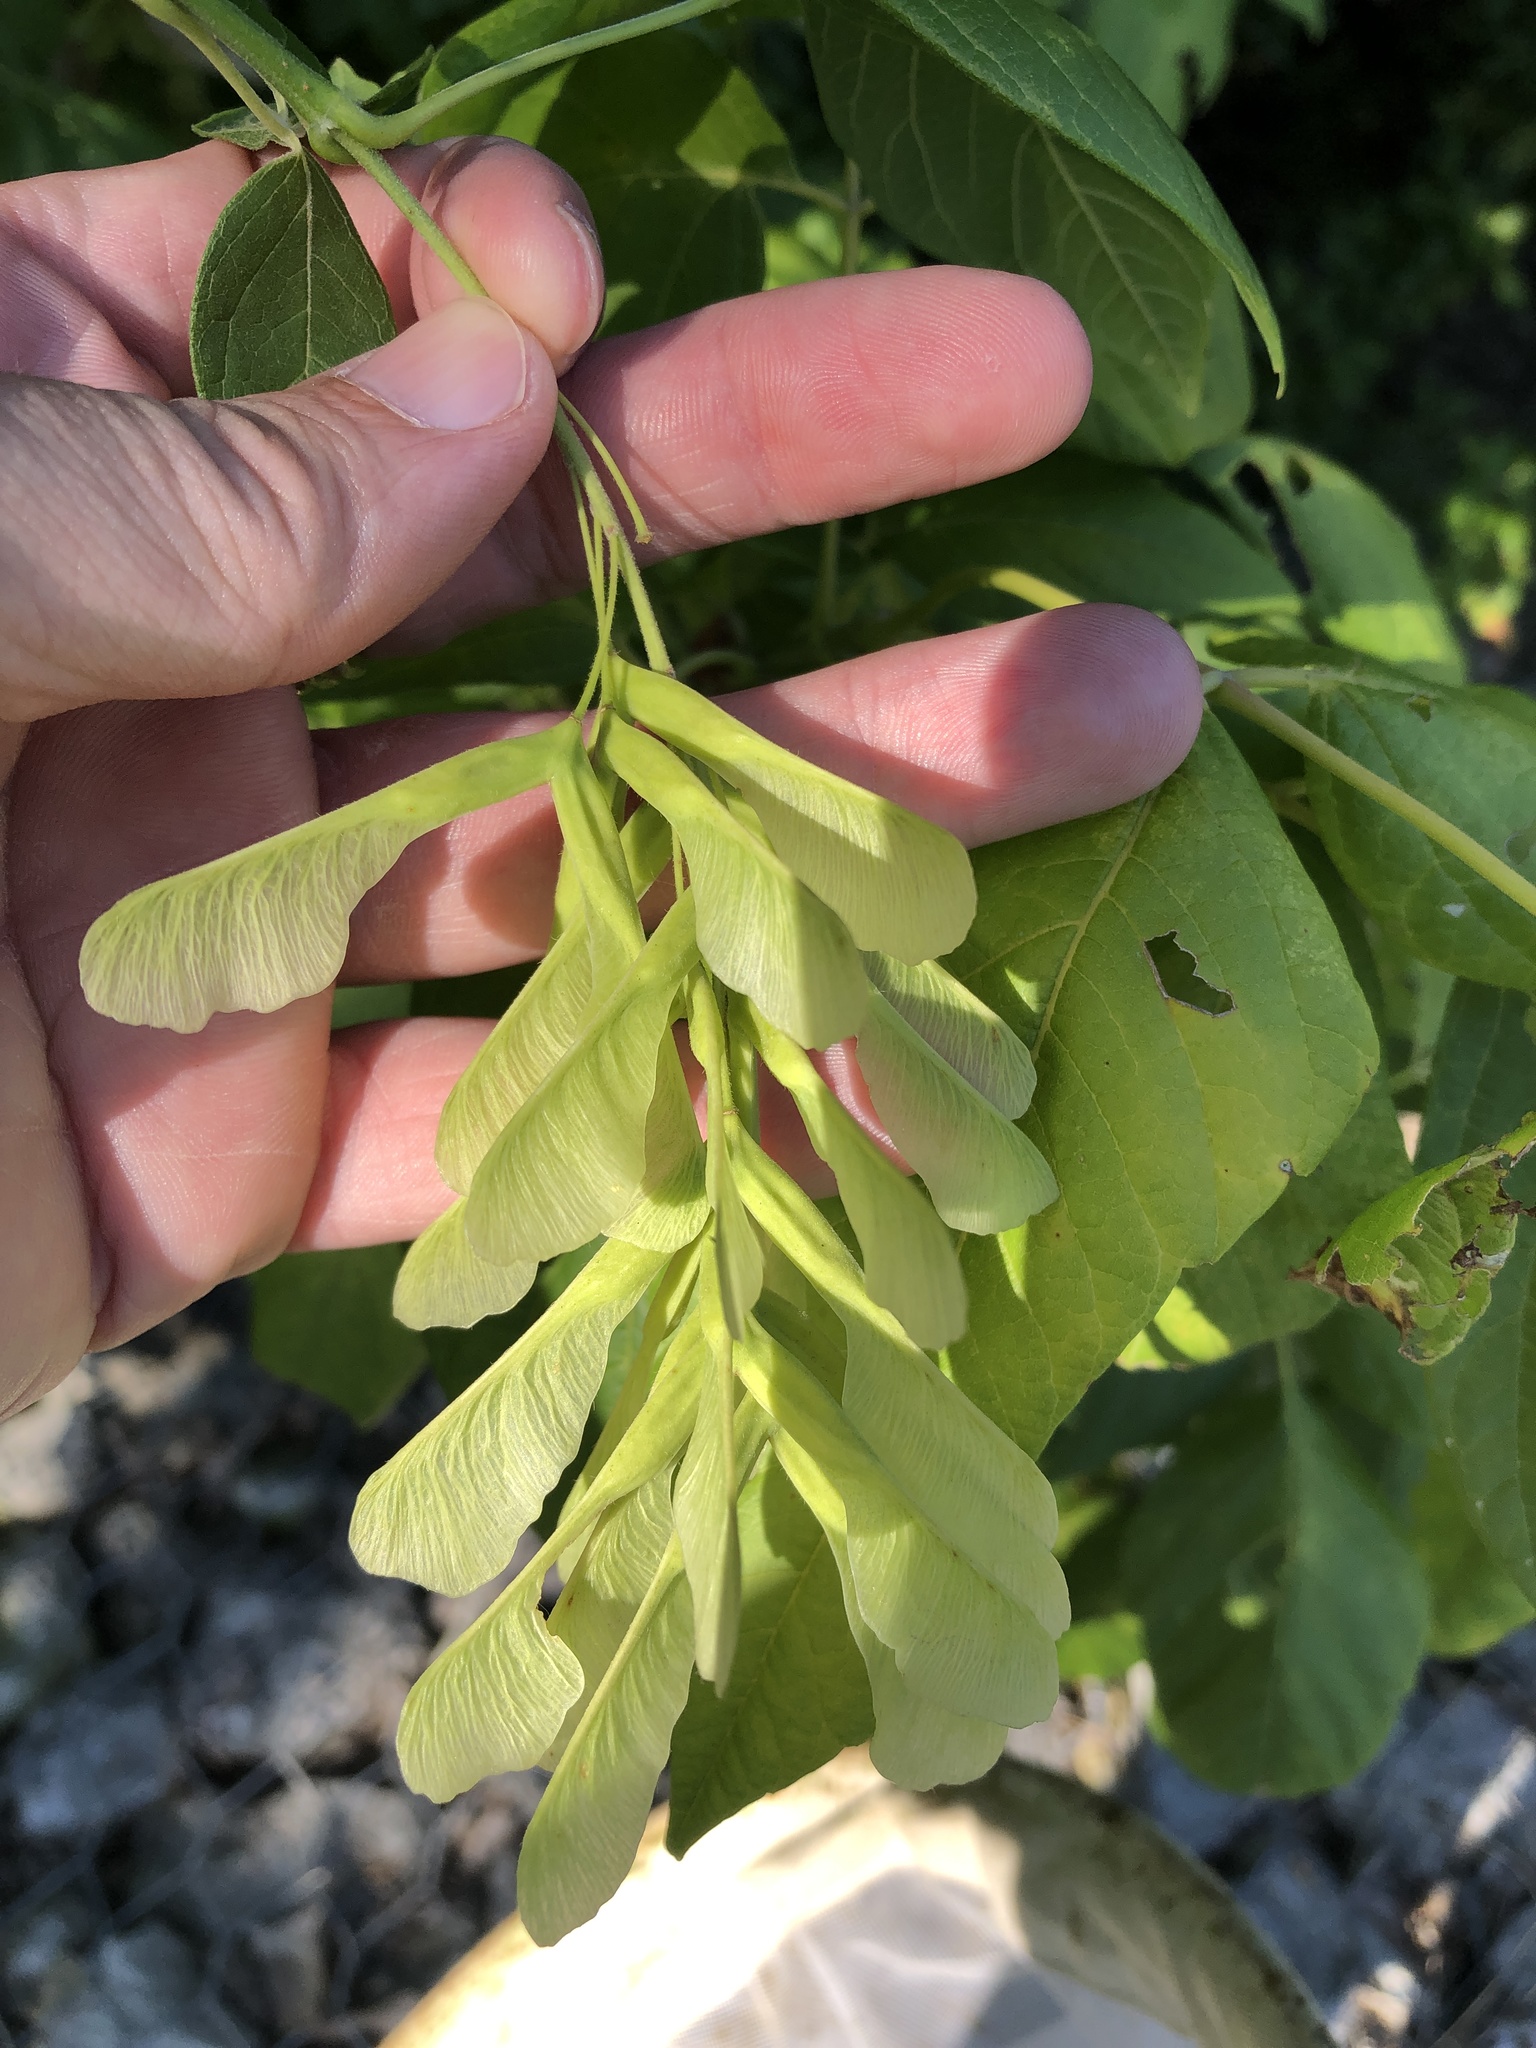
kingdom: Plantae
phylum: Tracheophyta
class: Magnoliopsida
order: Sapindales
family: Sapindaceae
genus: Acer
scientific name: Acer negundo
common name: Ashleaf maple
